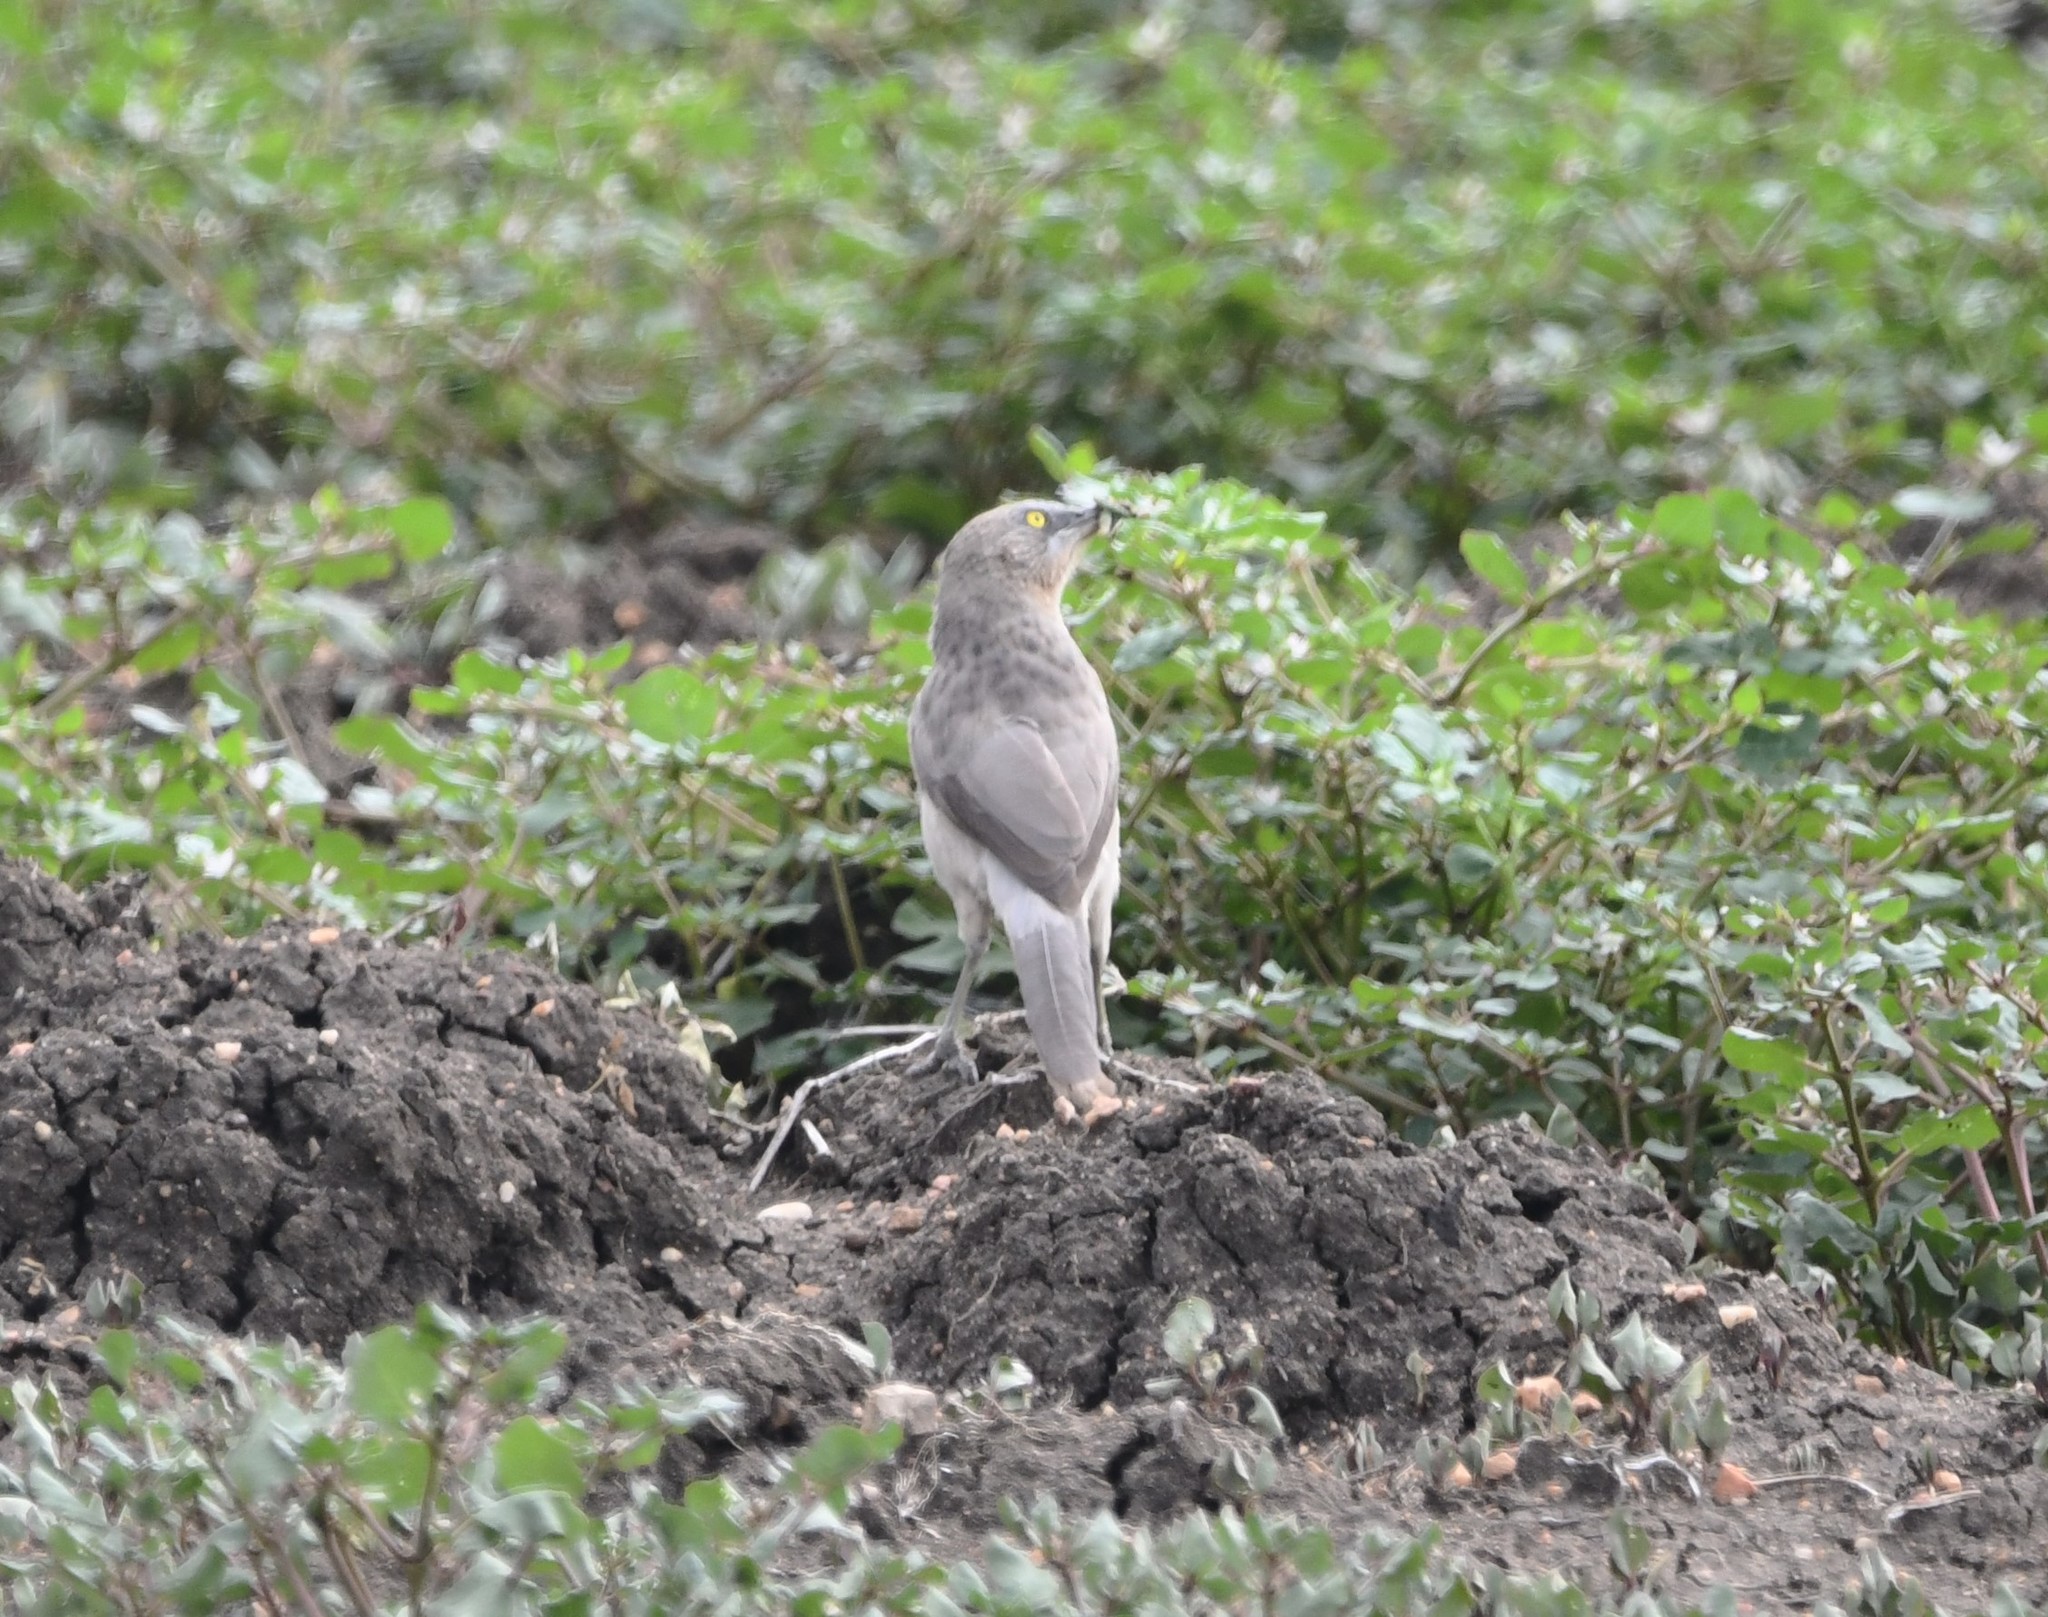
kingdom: Animalia
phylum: Chordata
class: Aves
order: Passeriformes
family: Leiothrichidae
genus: Turdoides
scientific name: Turdoides malcolmi
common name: Large grey babbler
